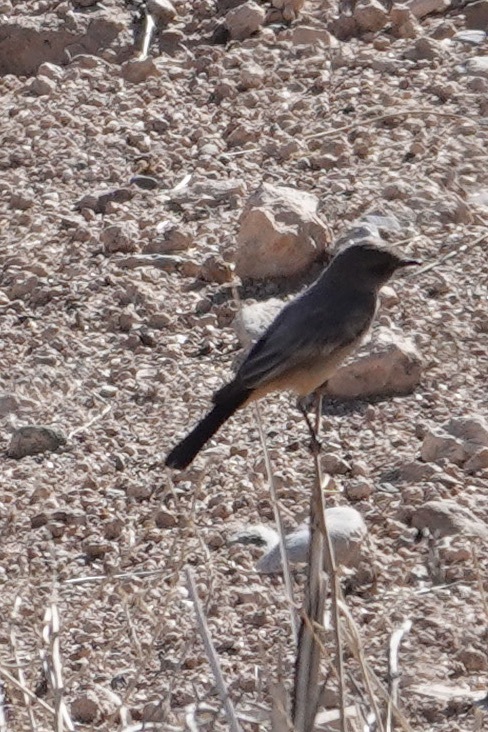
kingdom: Animalia
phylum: Chordata
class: Aves
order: Passeriformes
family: Tyrannidae
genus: Sayornis
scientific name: Sayornis saya
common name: Say's phoebe
